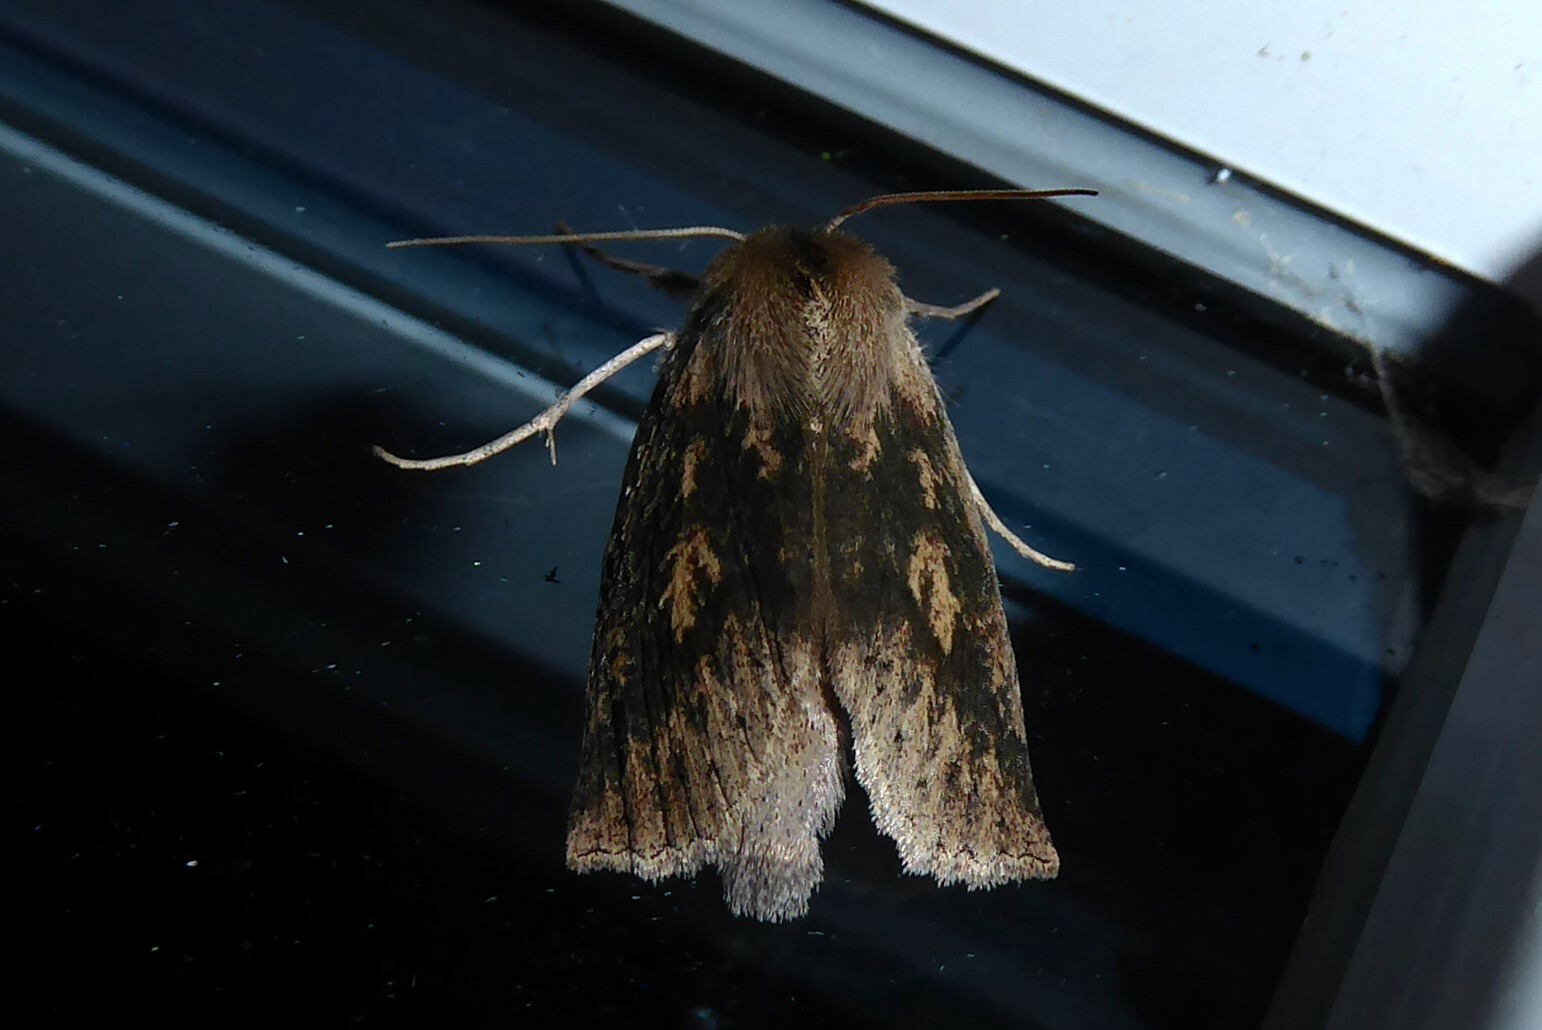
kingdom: Animalia
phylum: Arthropoda
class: Insecta
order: Lepidoptera
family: Geometridae
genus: Declana
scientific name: Declana leptomera
